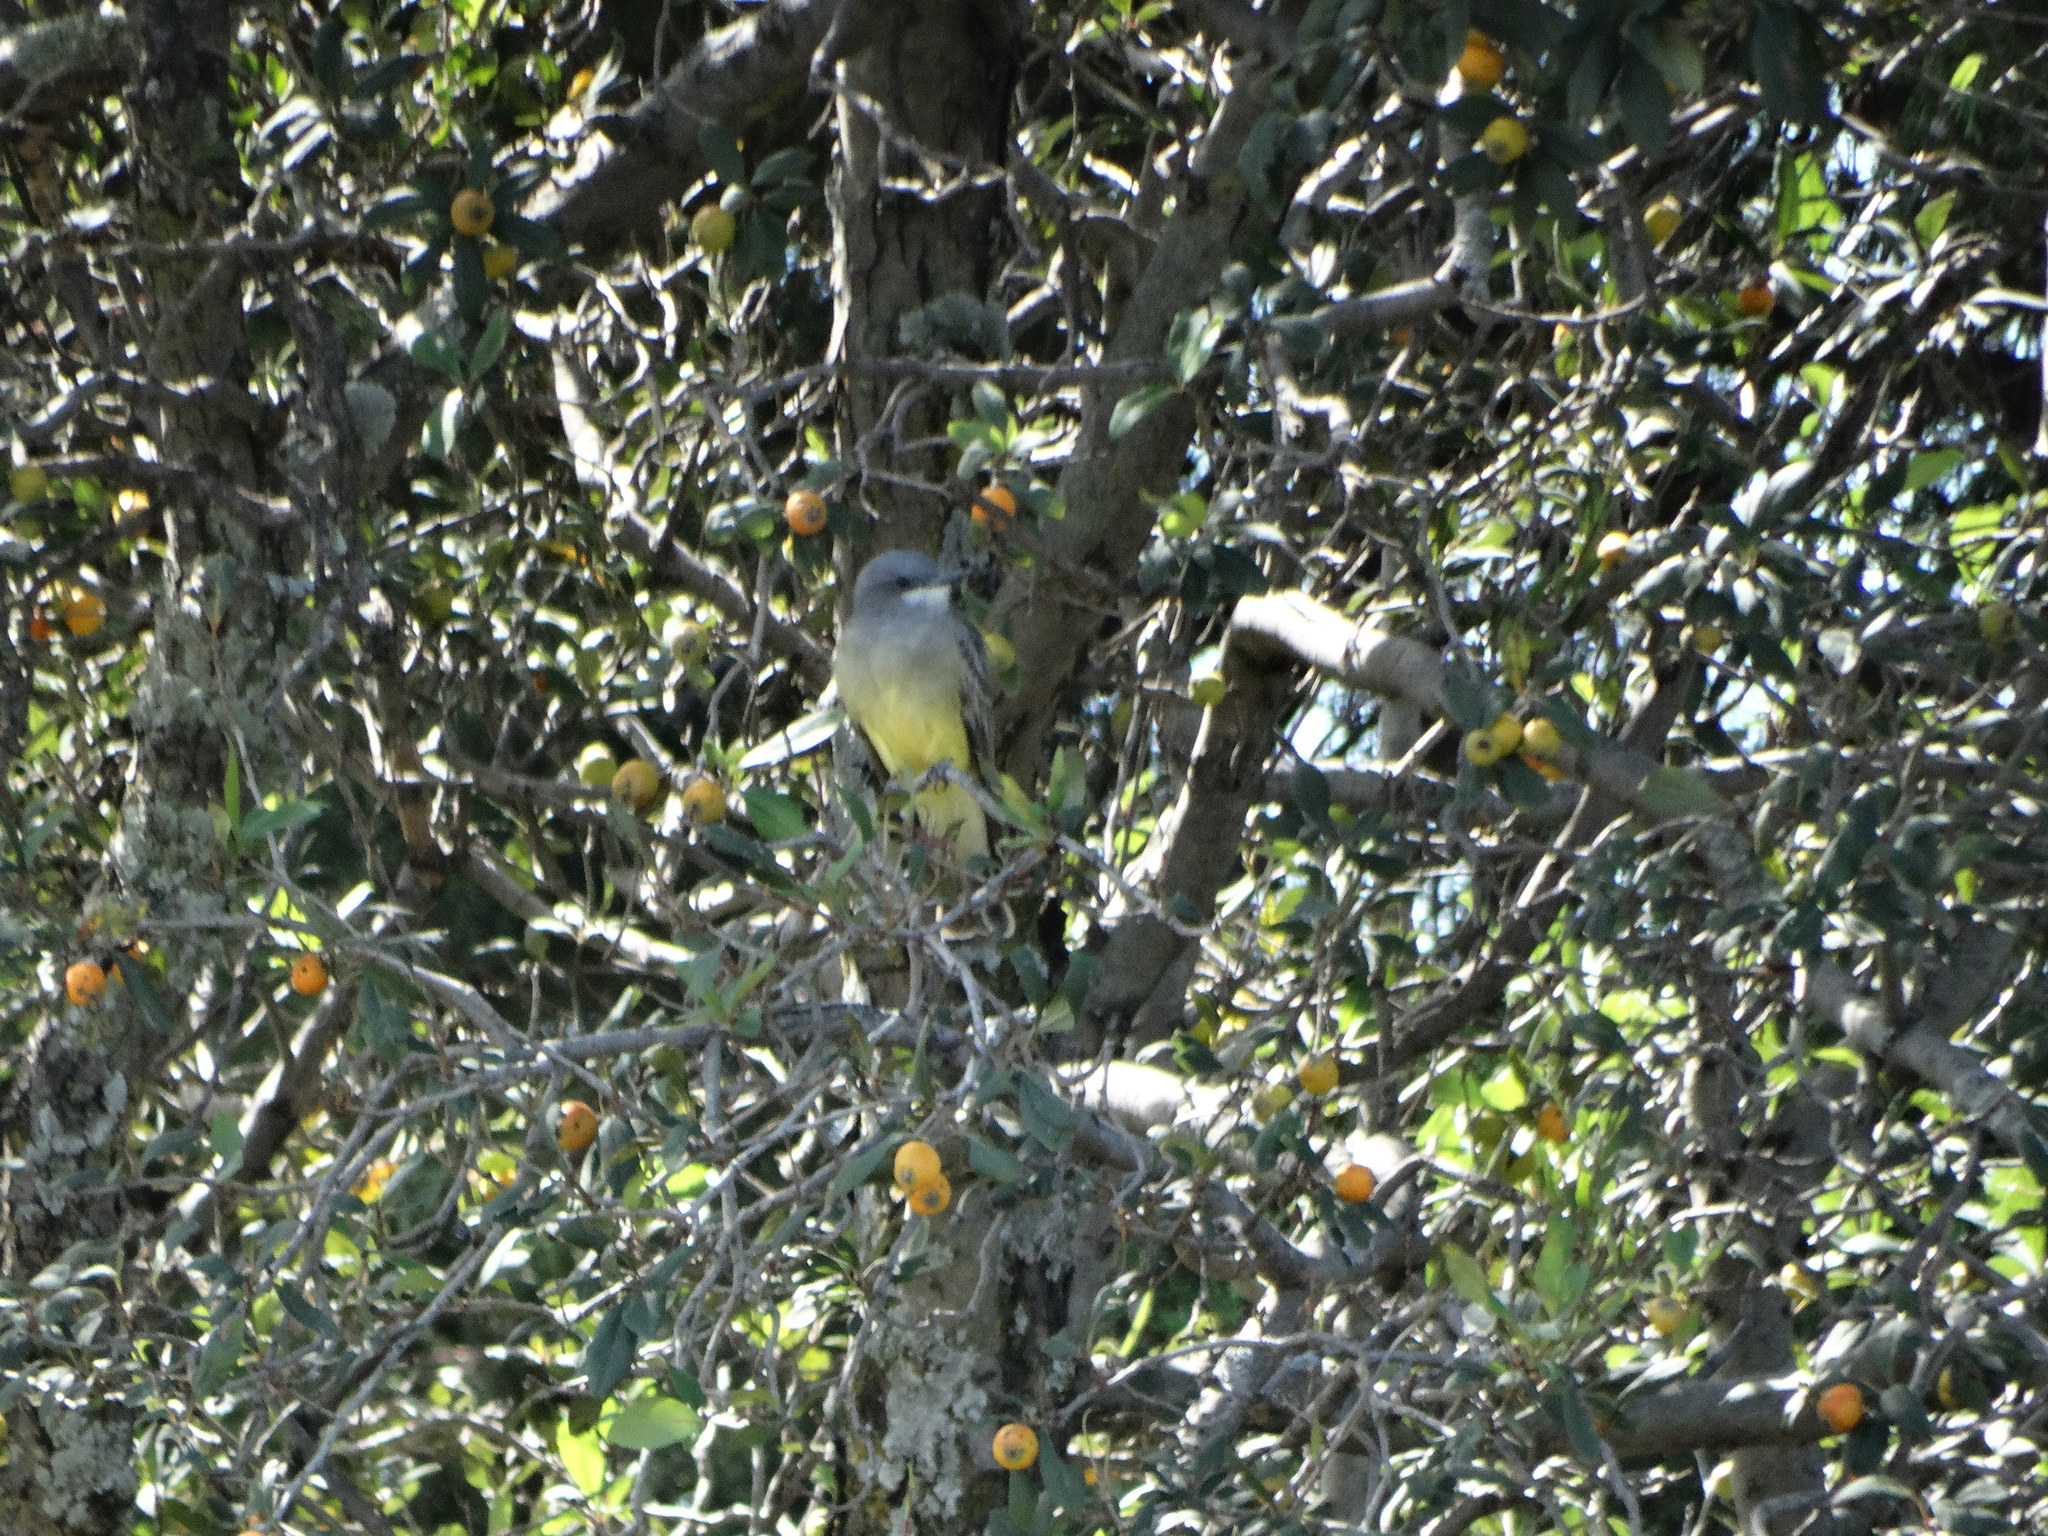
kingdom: Animalia
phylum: Chordata
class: Aves
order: Passeriformes
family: Tyrannidae
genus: Tyrannus
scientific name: Tyrannus vociferans
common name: Cassin's kingbird
